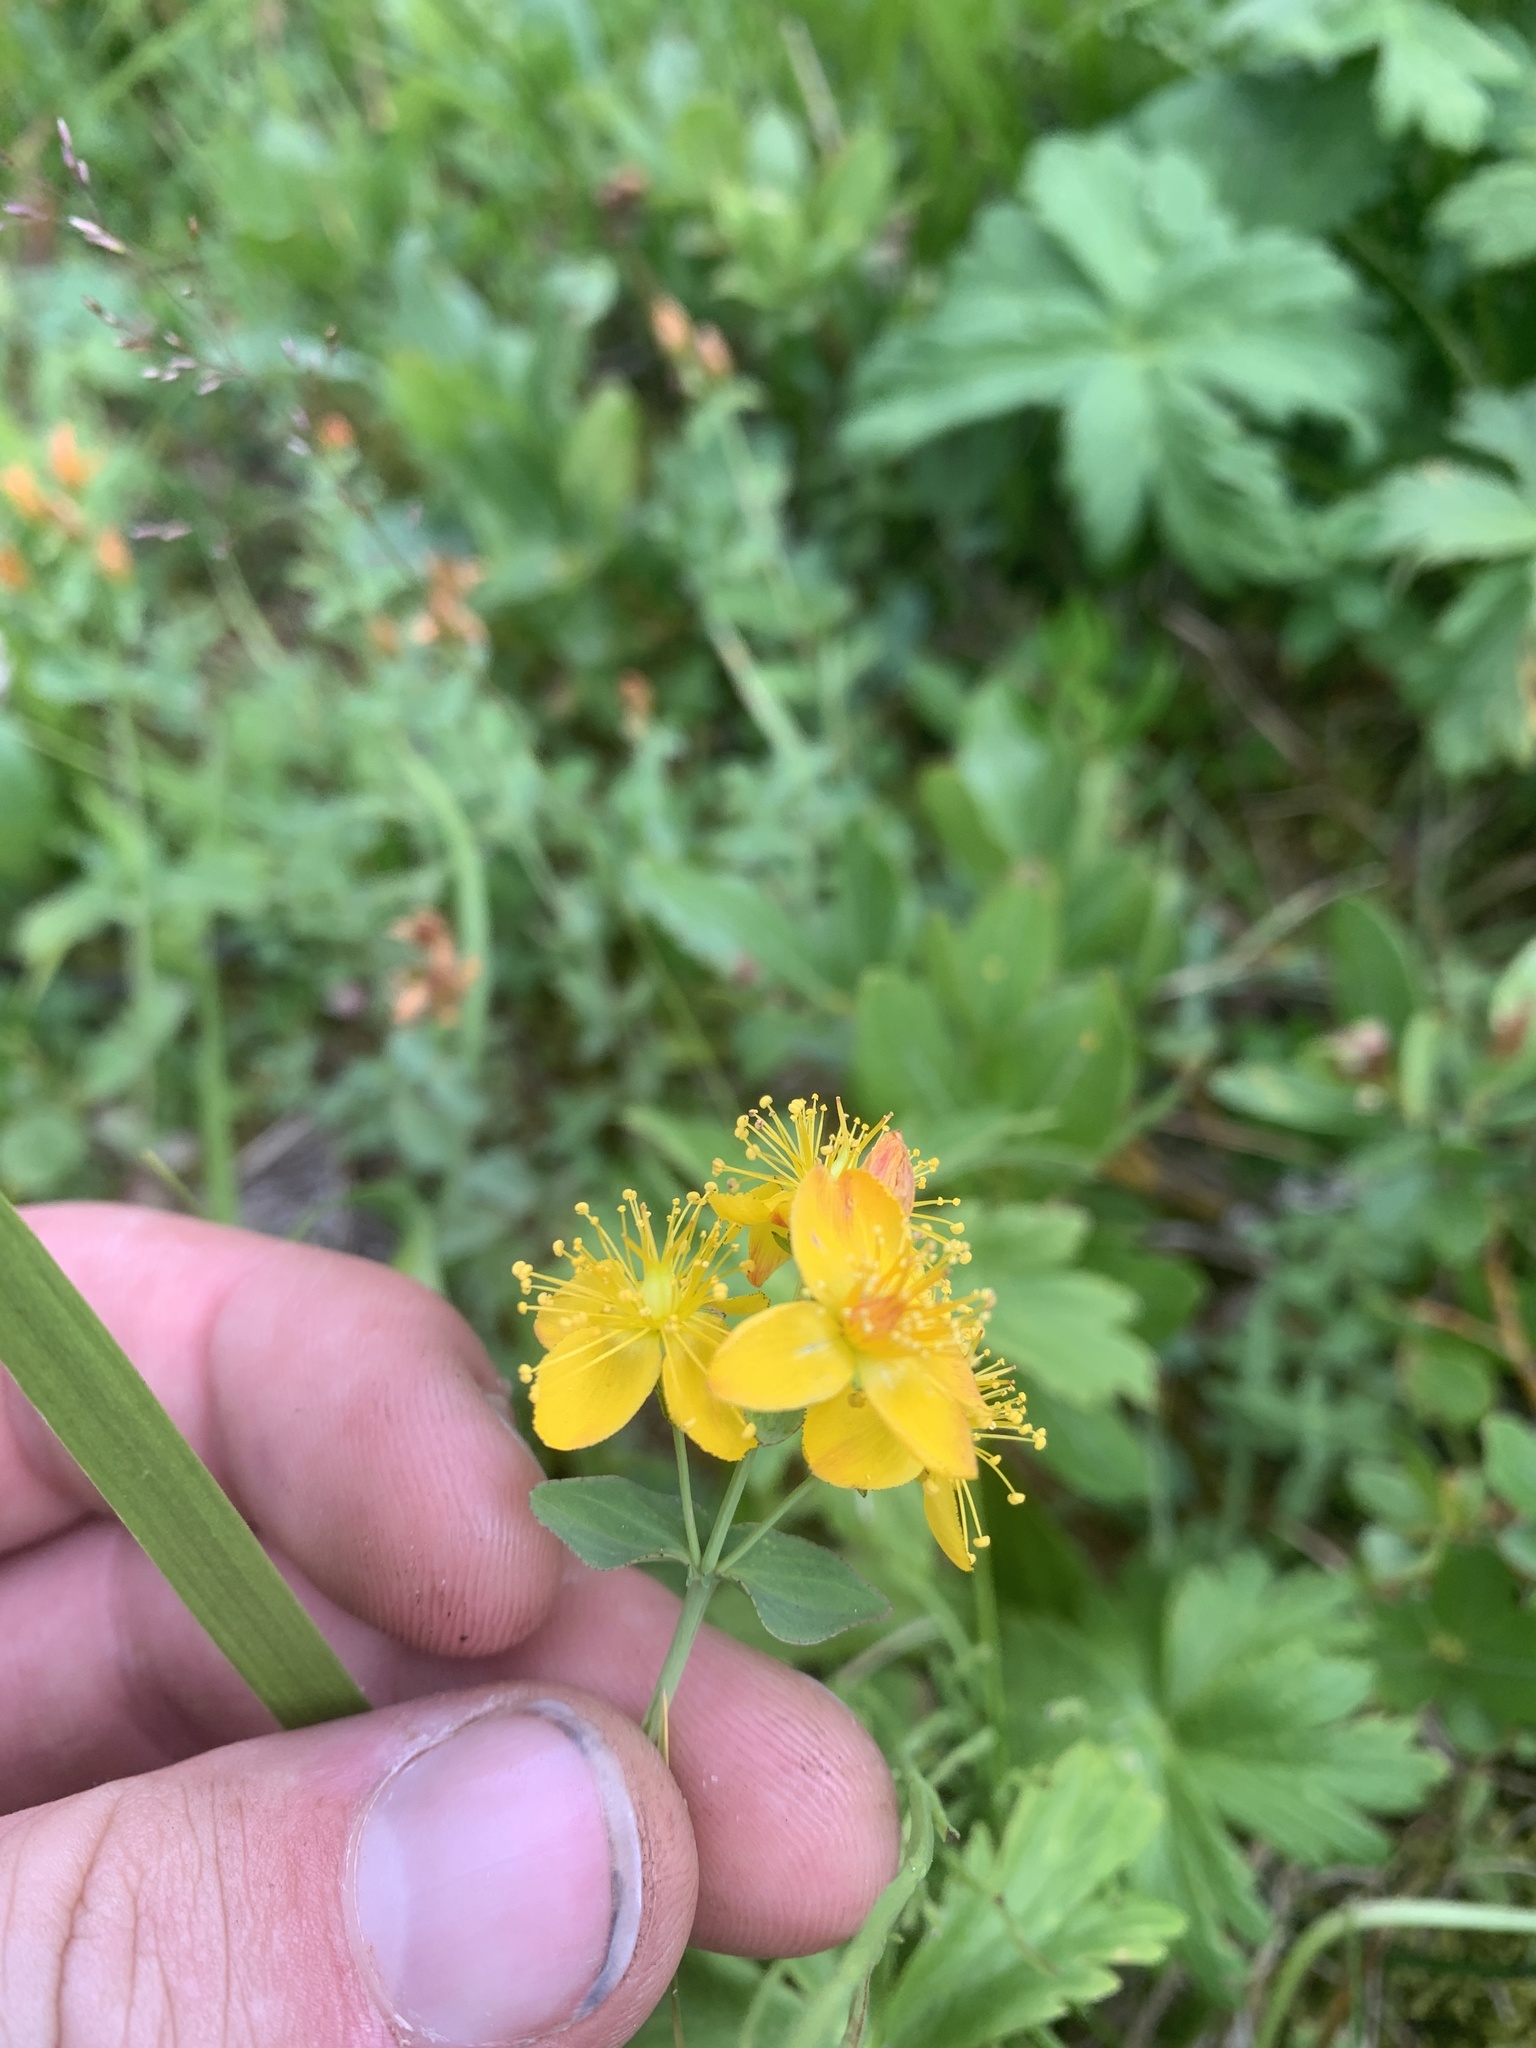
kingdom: Plantae
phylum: Tracheophyta
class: Magnoliopsida
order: Malpighiales
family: Hypericaceae
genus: Hypericum
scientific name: Hypericum scouleri
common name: Scouler's st. john's-wort
